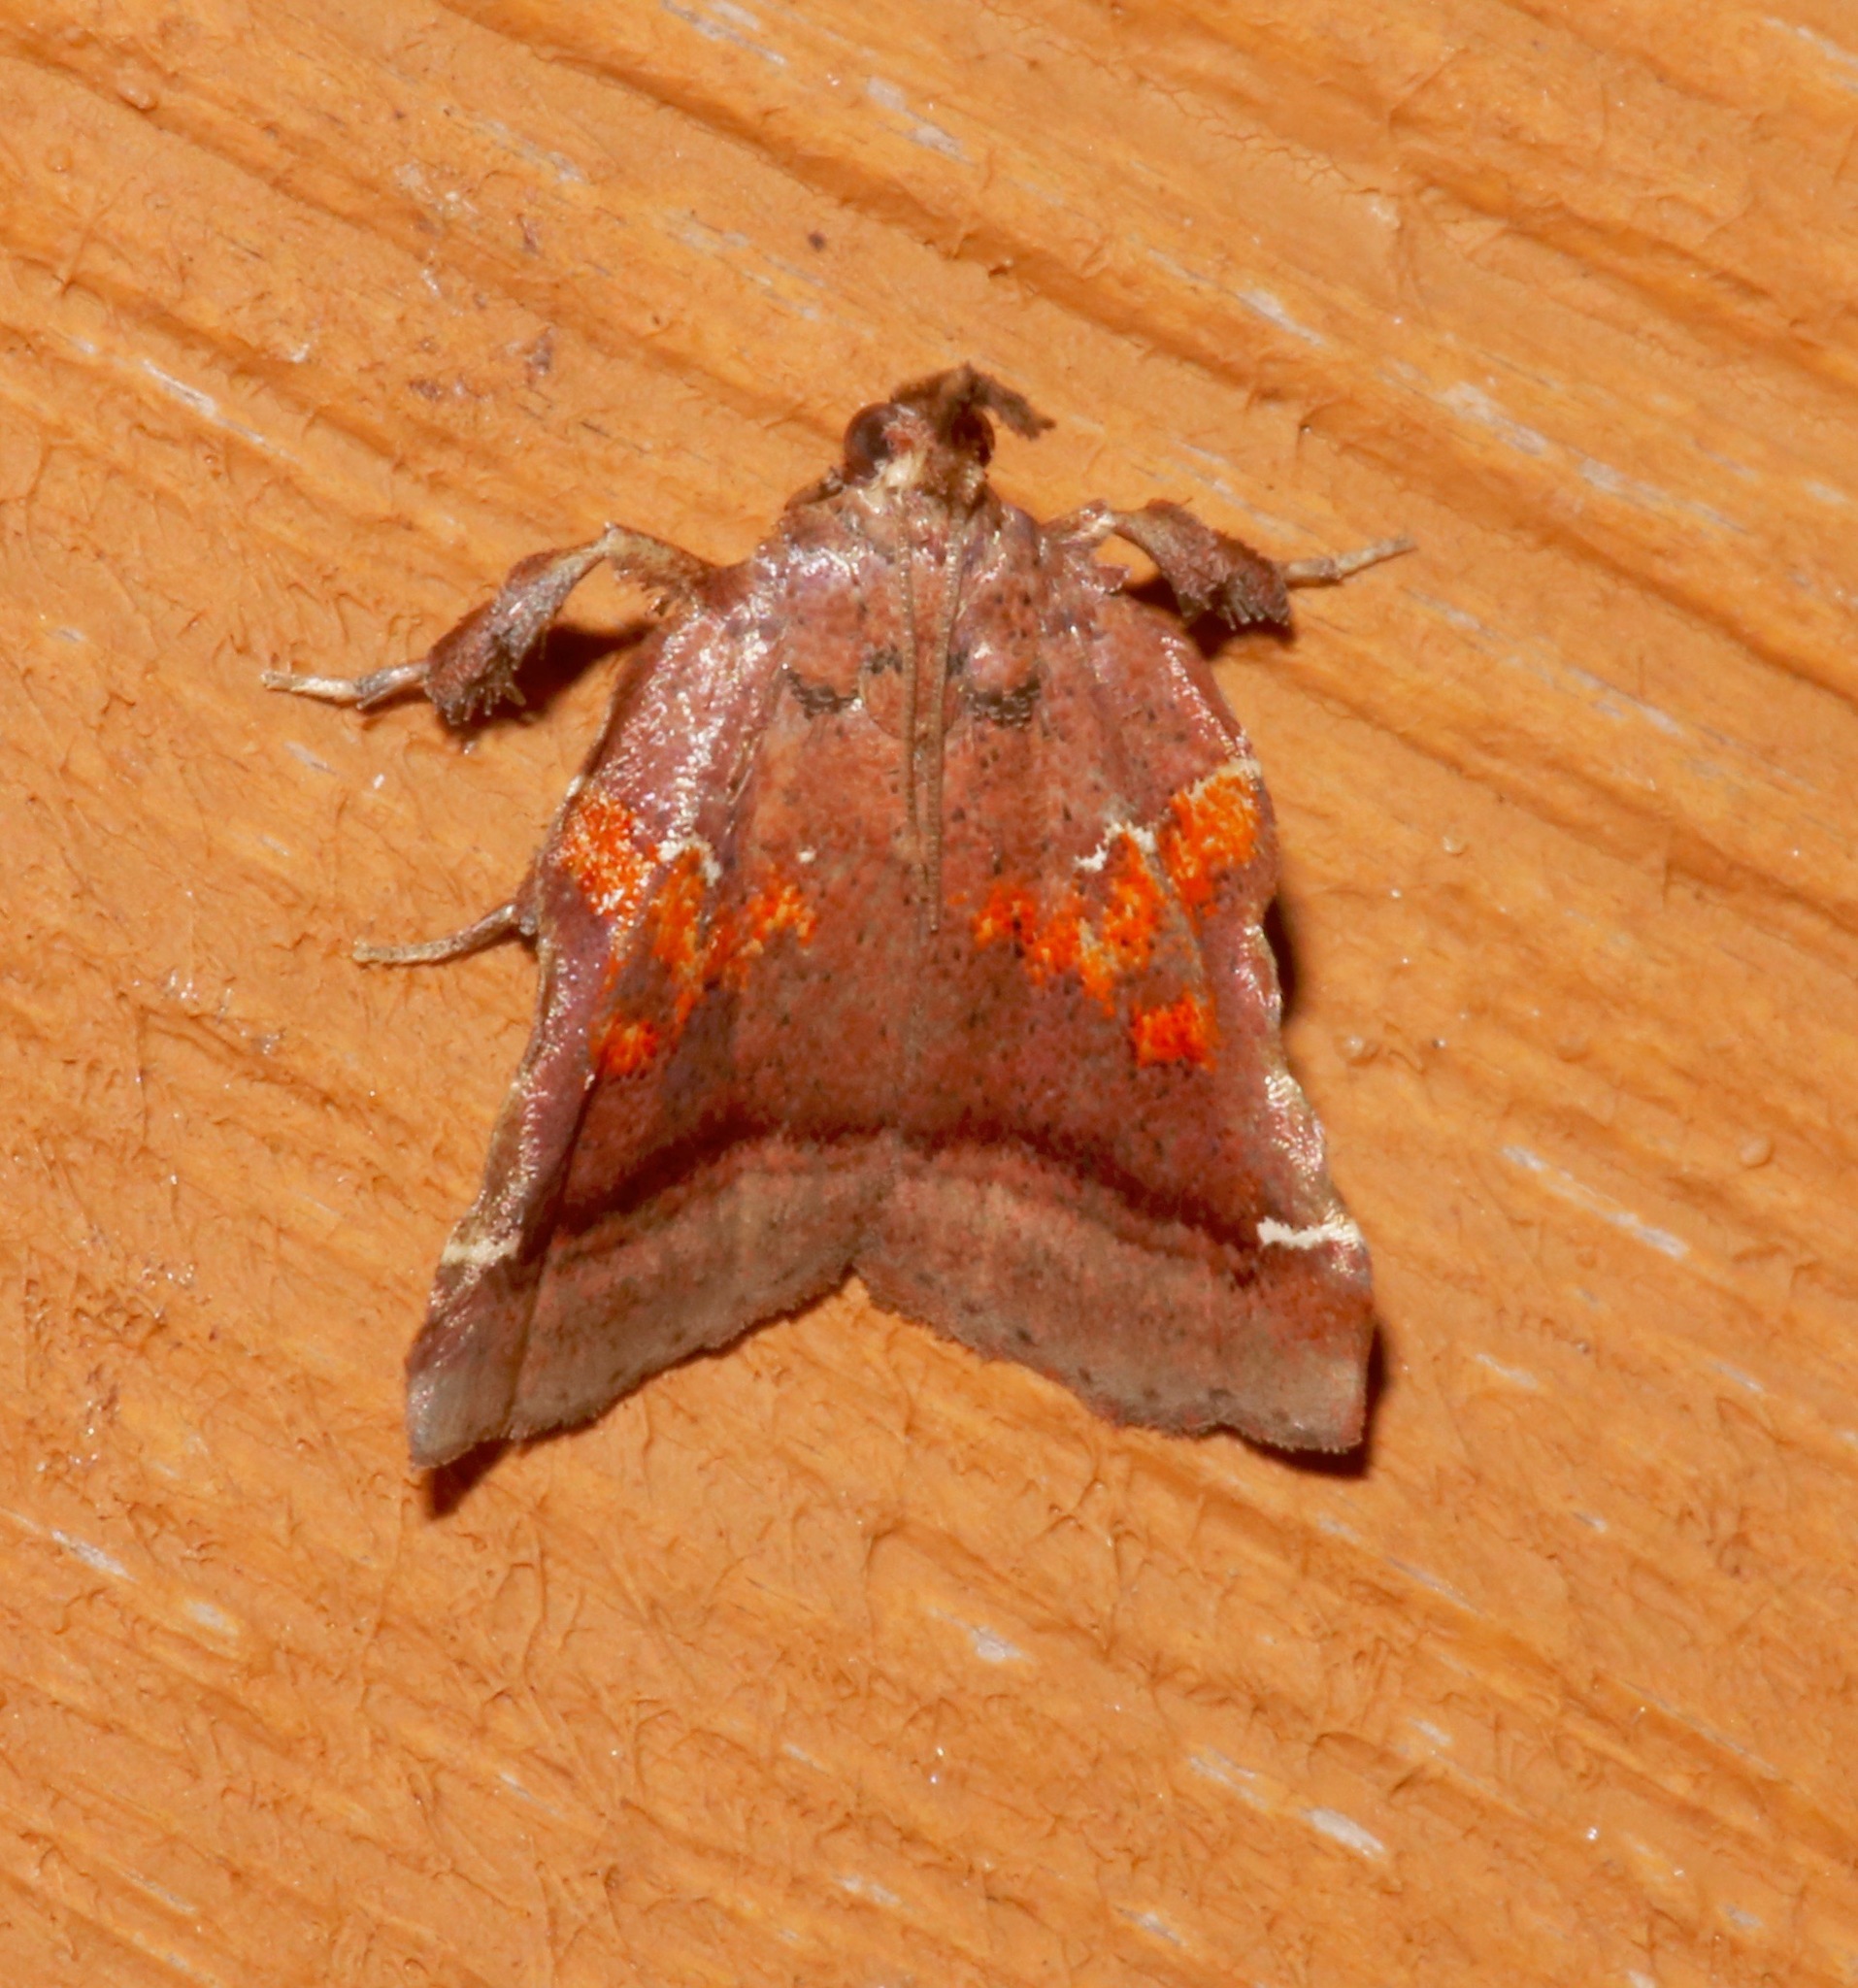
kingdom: Animalia
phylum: Arthropoda
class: Insecta
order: Lepidoptera
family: Pyralidae
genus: Clydonopteron
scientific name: Clydonopteron sacculana
